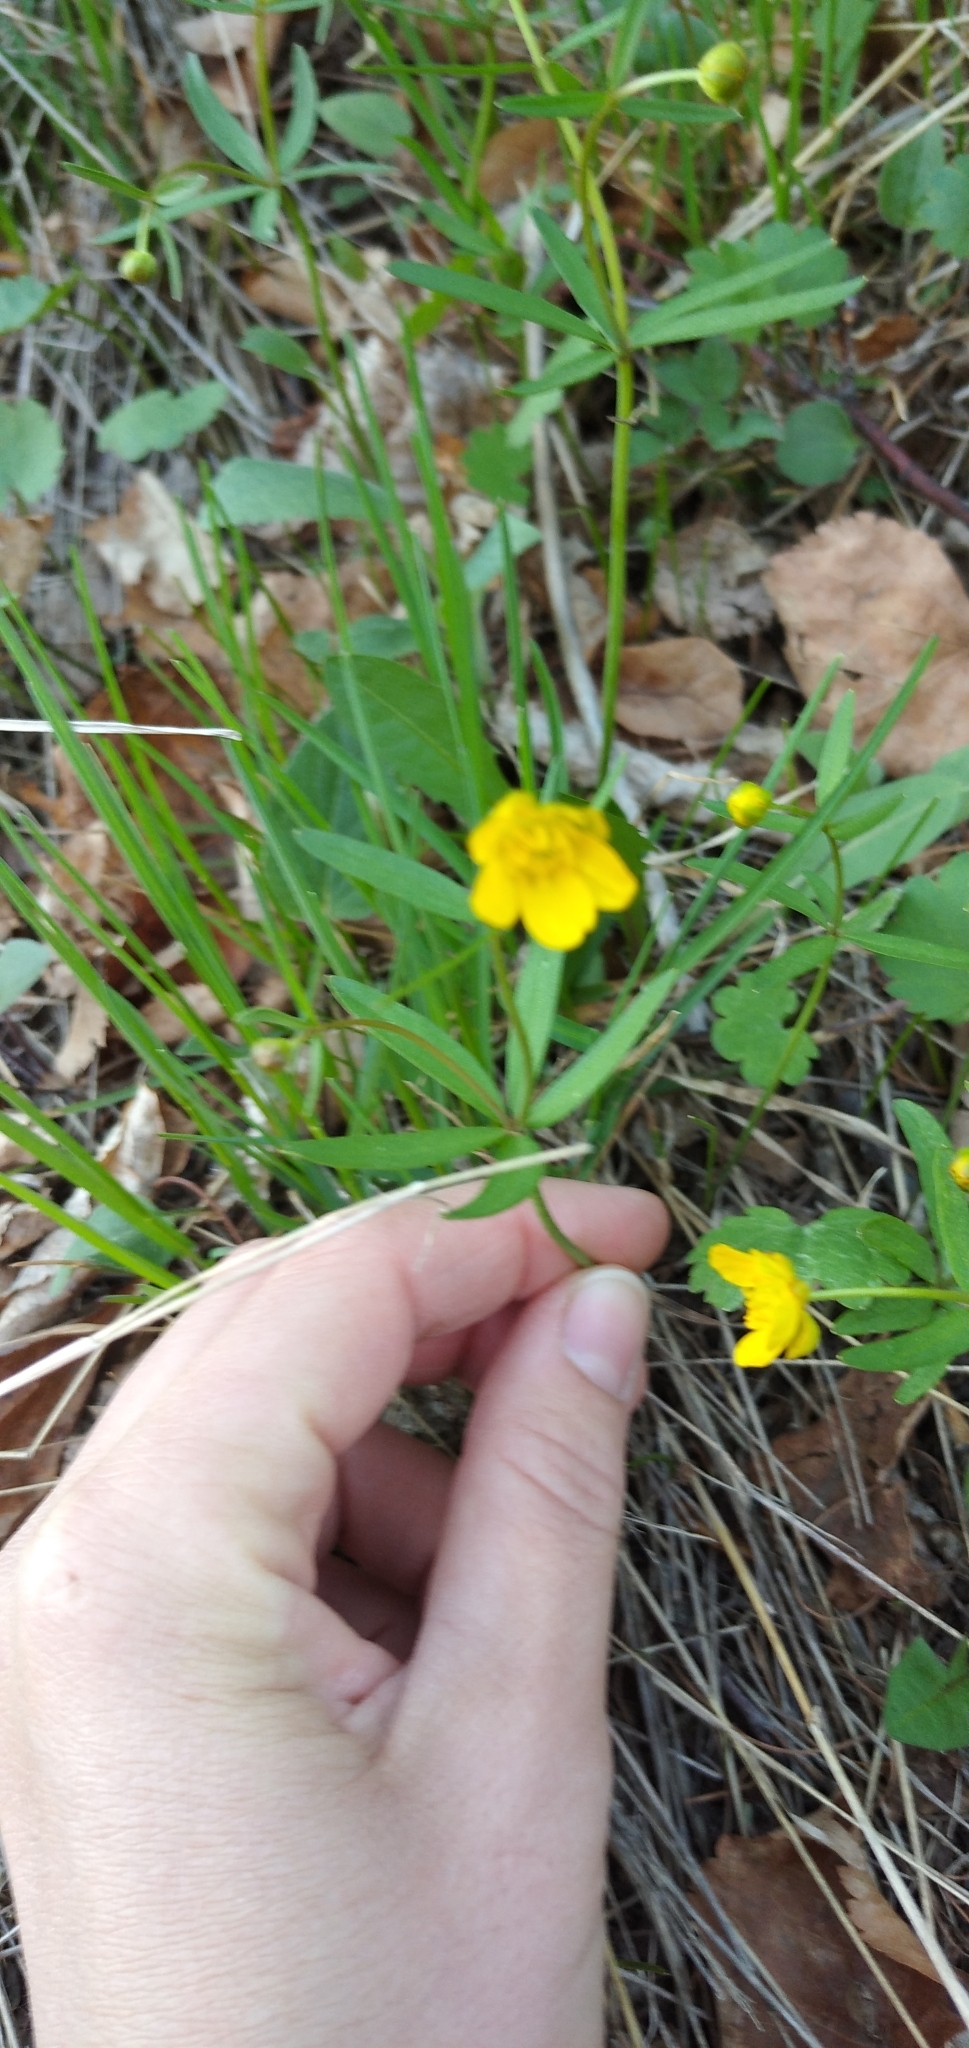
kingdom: Plantae
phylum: Tracheophyta
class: Magnoliopsida
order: Ranunculales
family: Ranunculaceae
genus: Ranunculus
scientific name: Ranunculus monophyllus
